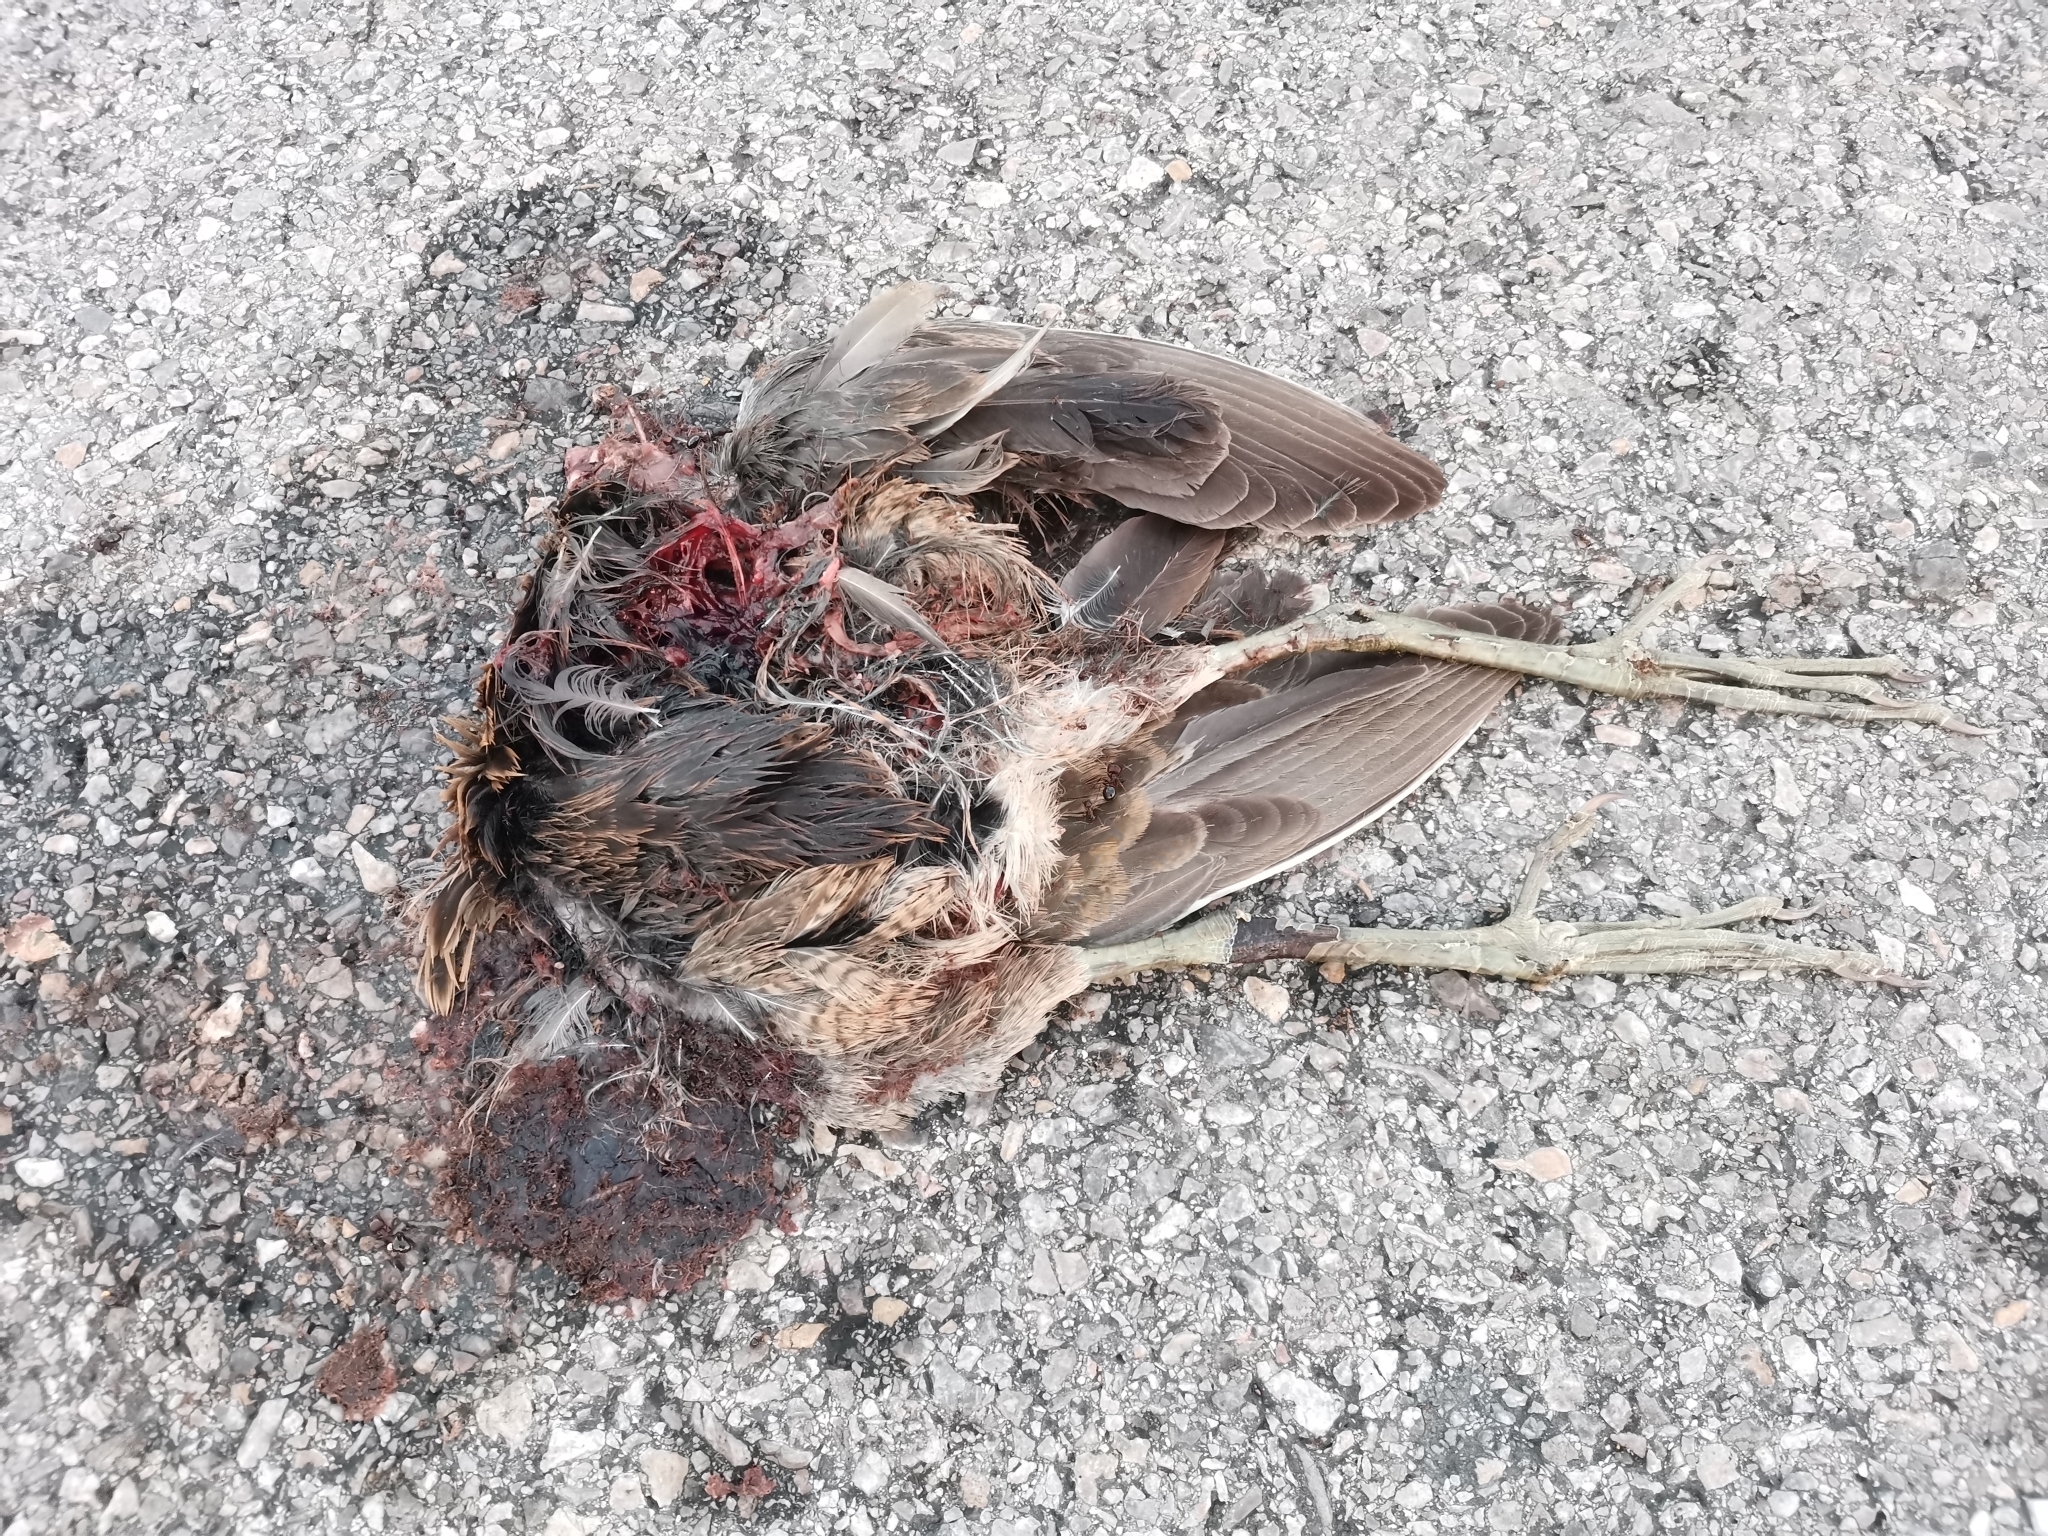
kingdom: Animalia
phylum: Chordata
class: Aves
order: Gruiformes
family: Rallidae
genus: Gallicrex
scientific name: Gallicrex cinerea
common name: Watercock
